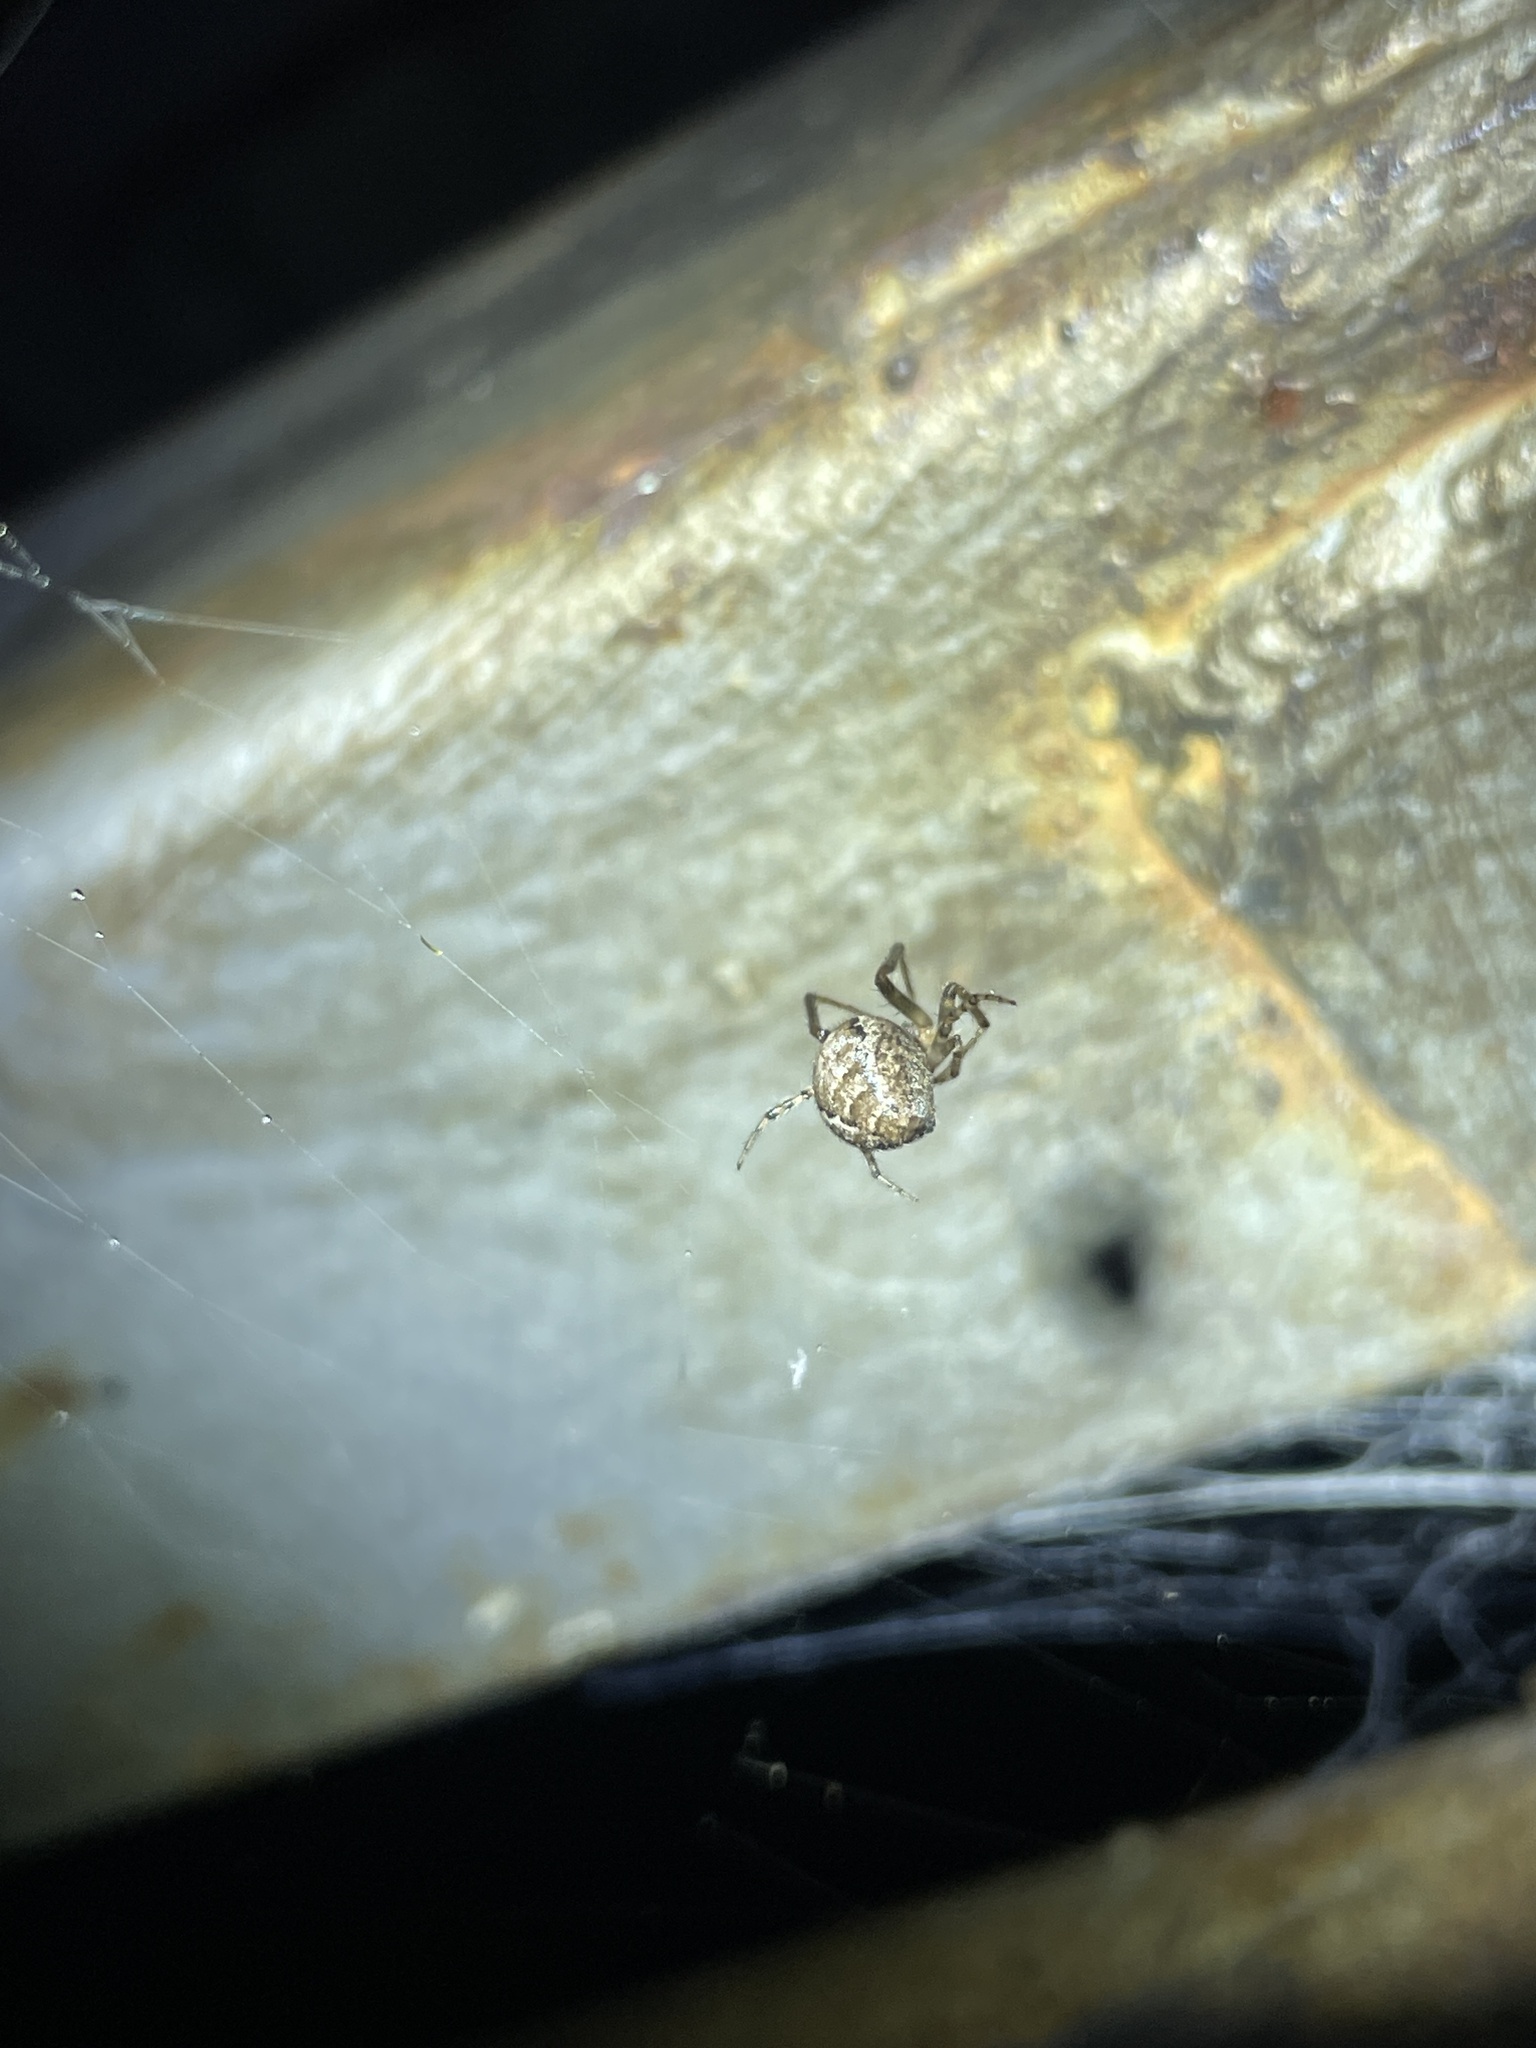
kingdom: Animalia
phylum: Arthropoda
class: Arachnida
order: Araneae
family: Araneidae
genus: Zygiella
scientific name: Zygiella x-notata
